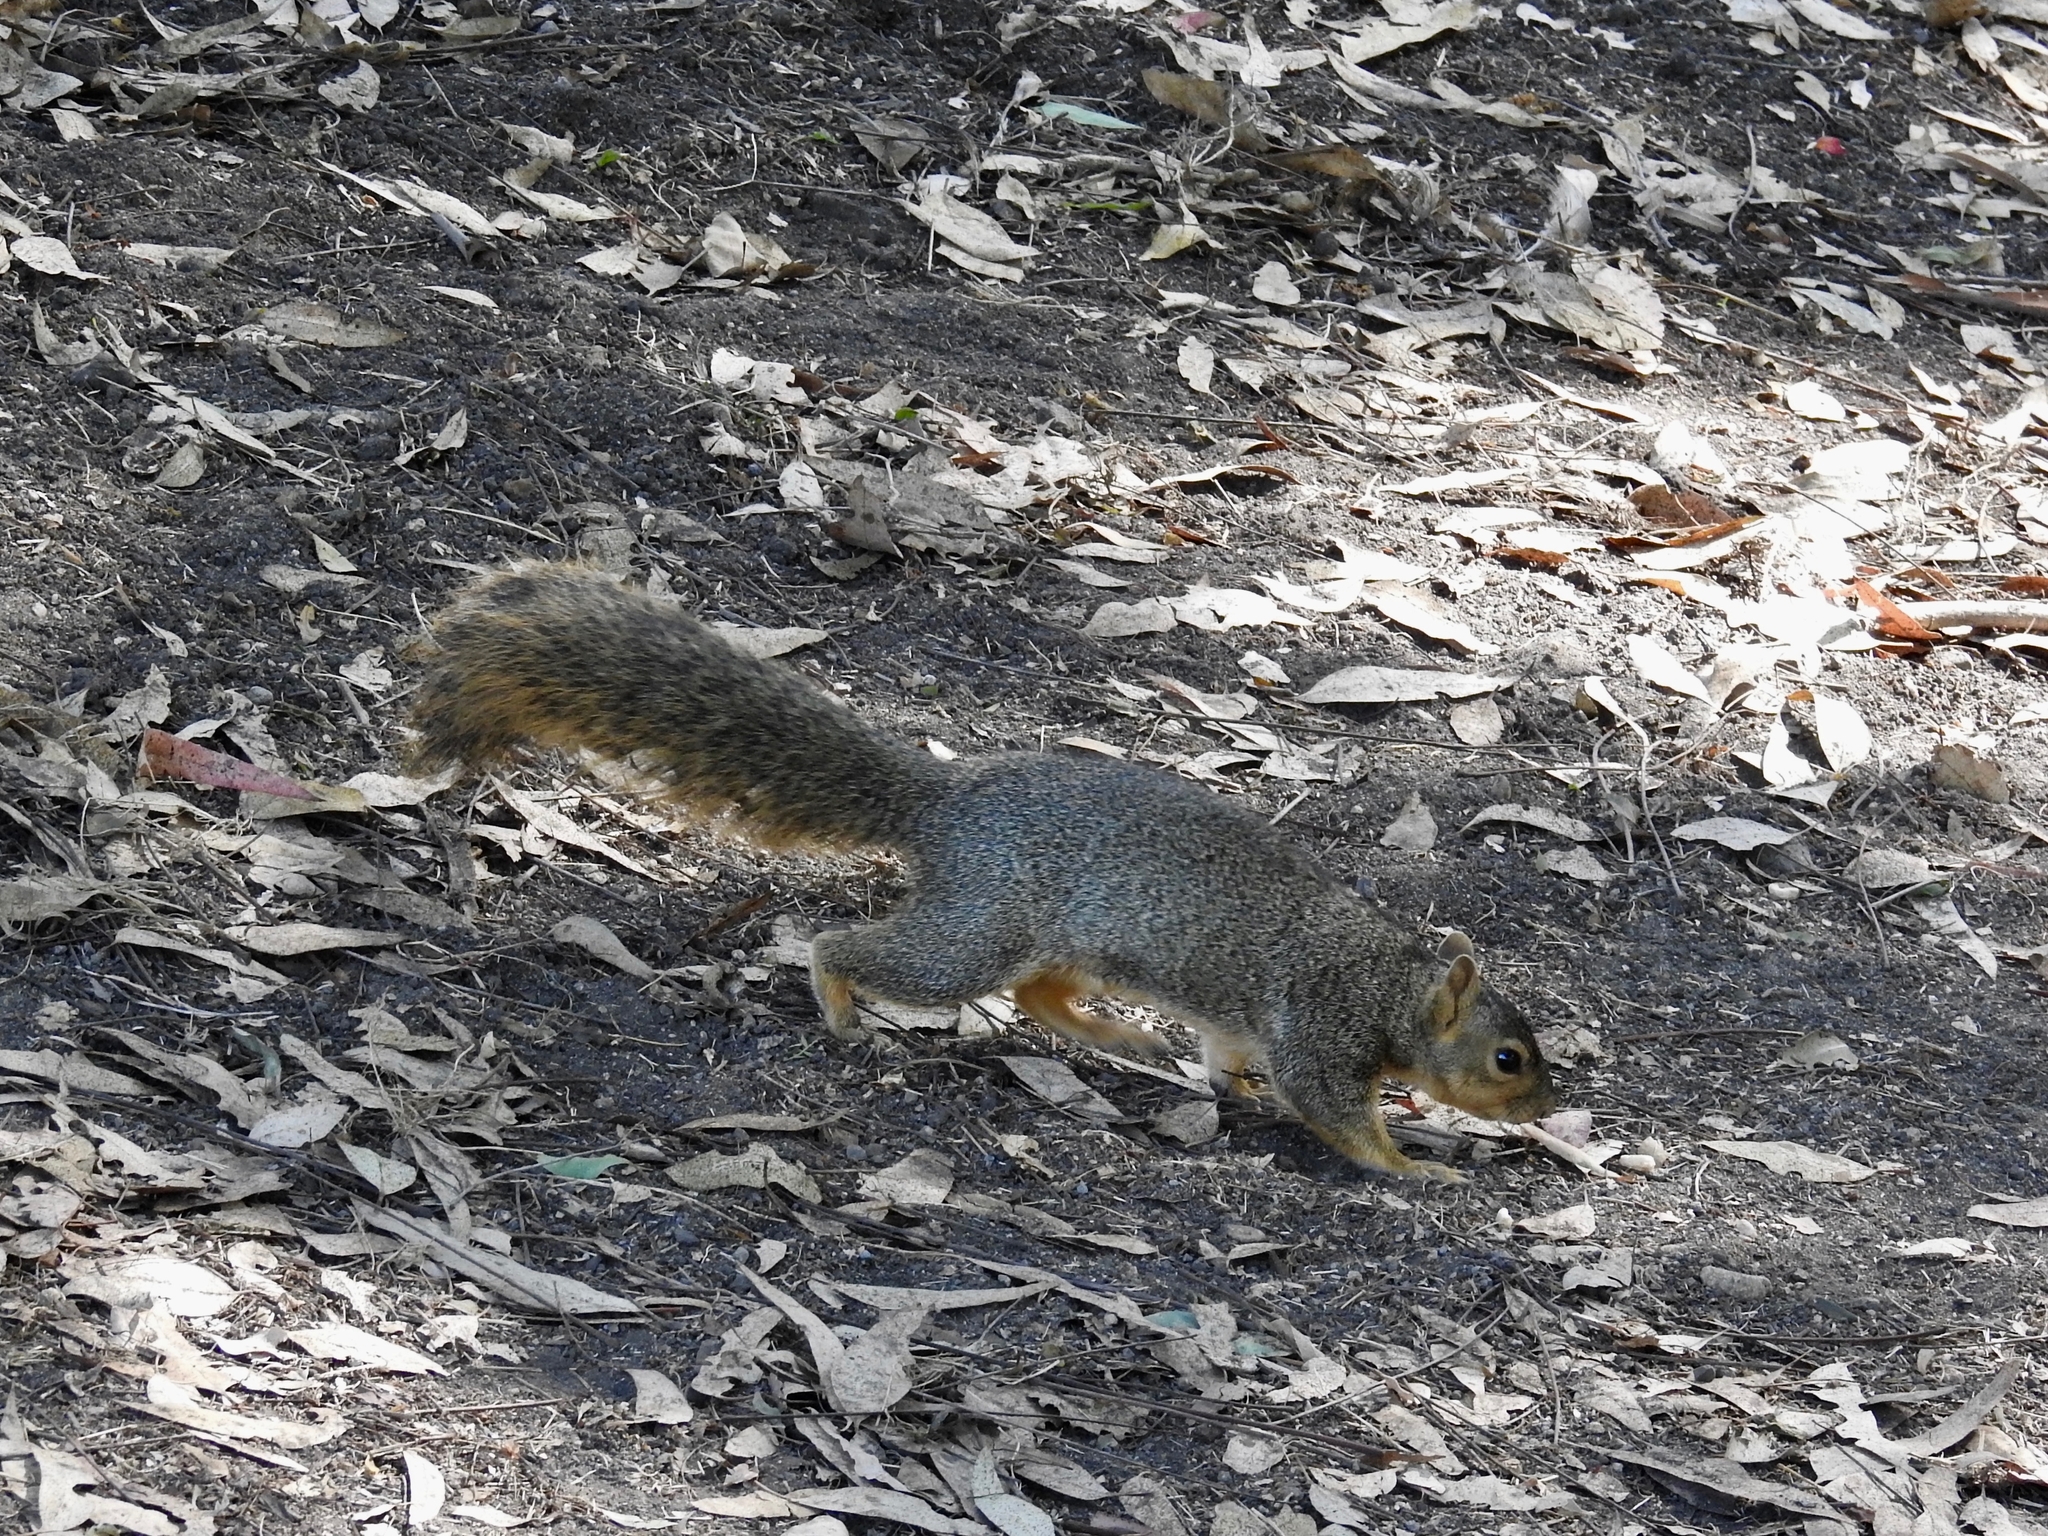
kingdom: Animalia
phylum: Chordata
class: Mammalia
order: Rodentia
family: Sciuridae
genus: Sciurus
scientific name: Sciurus niger
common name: Fox squirrel
